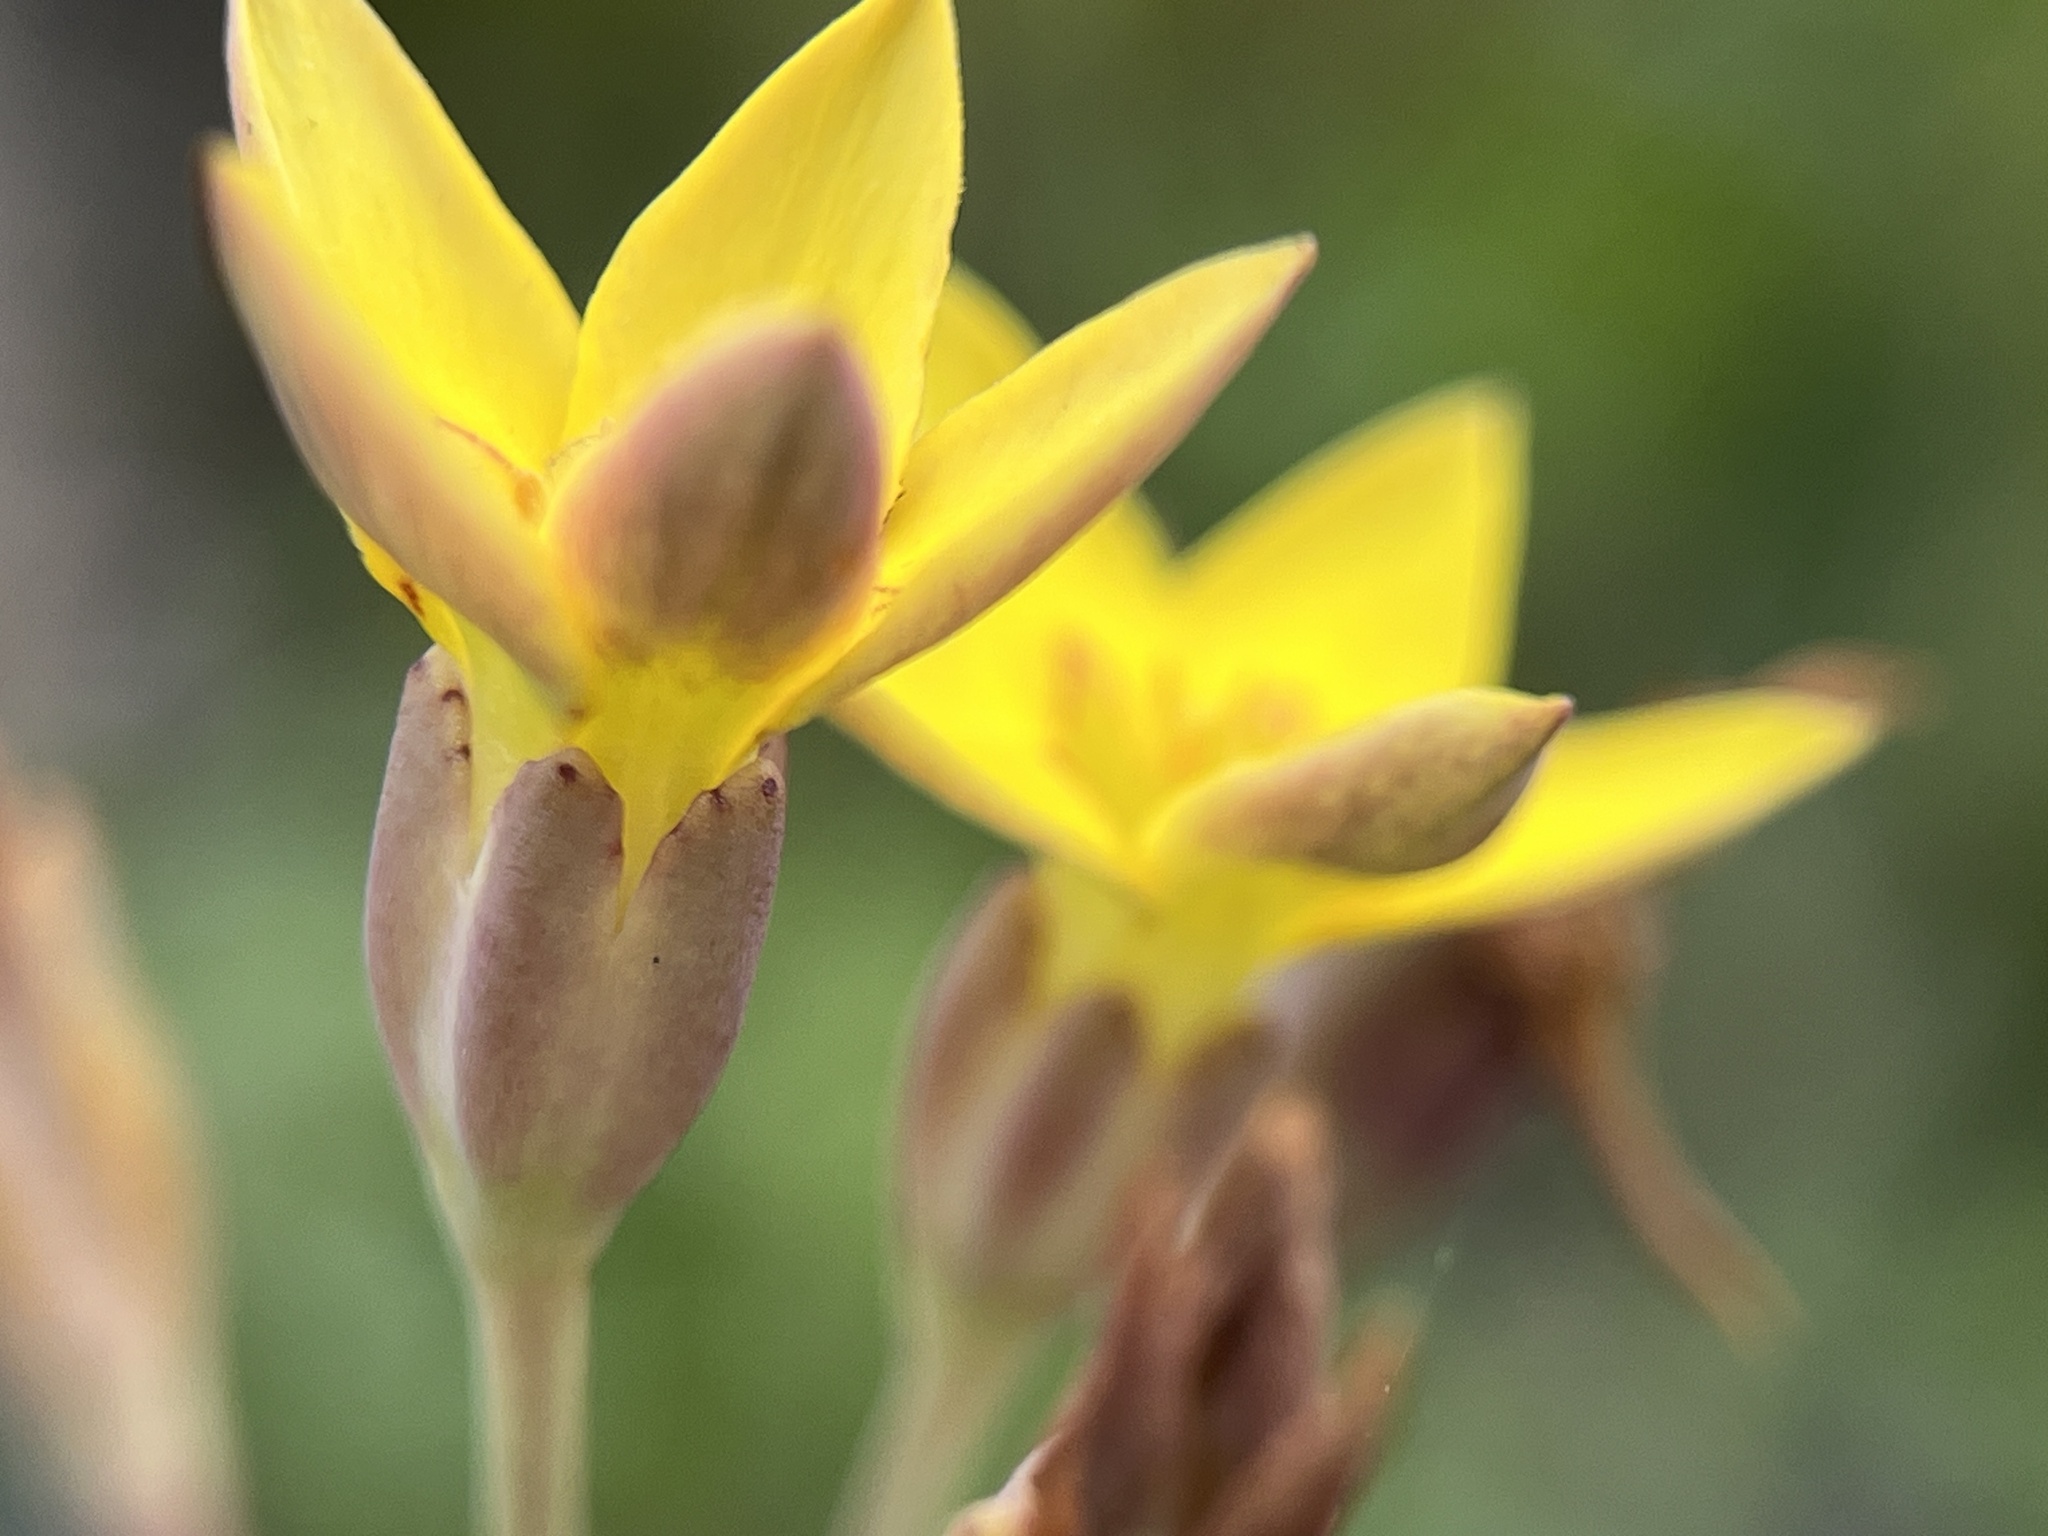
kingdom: Plantae
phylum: Tracheophyta
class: Magnoliopsida
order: Saxifragales
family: Crassulaceae
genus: Crassula
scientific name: Crassula dichotoma
